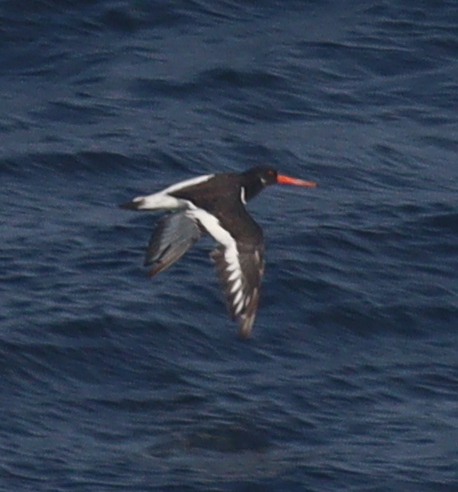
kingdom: Animalia
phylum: Chordata
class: Aves
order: Charadriiformes
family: Haematopodidae
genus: Haematopus
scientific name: Haematopus ostralegus
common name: Eurasian oystercatcher
